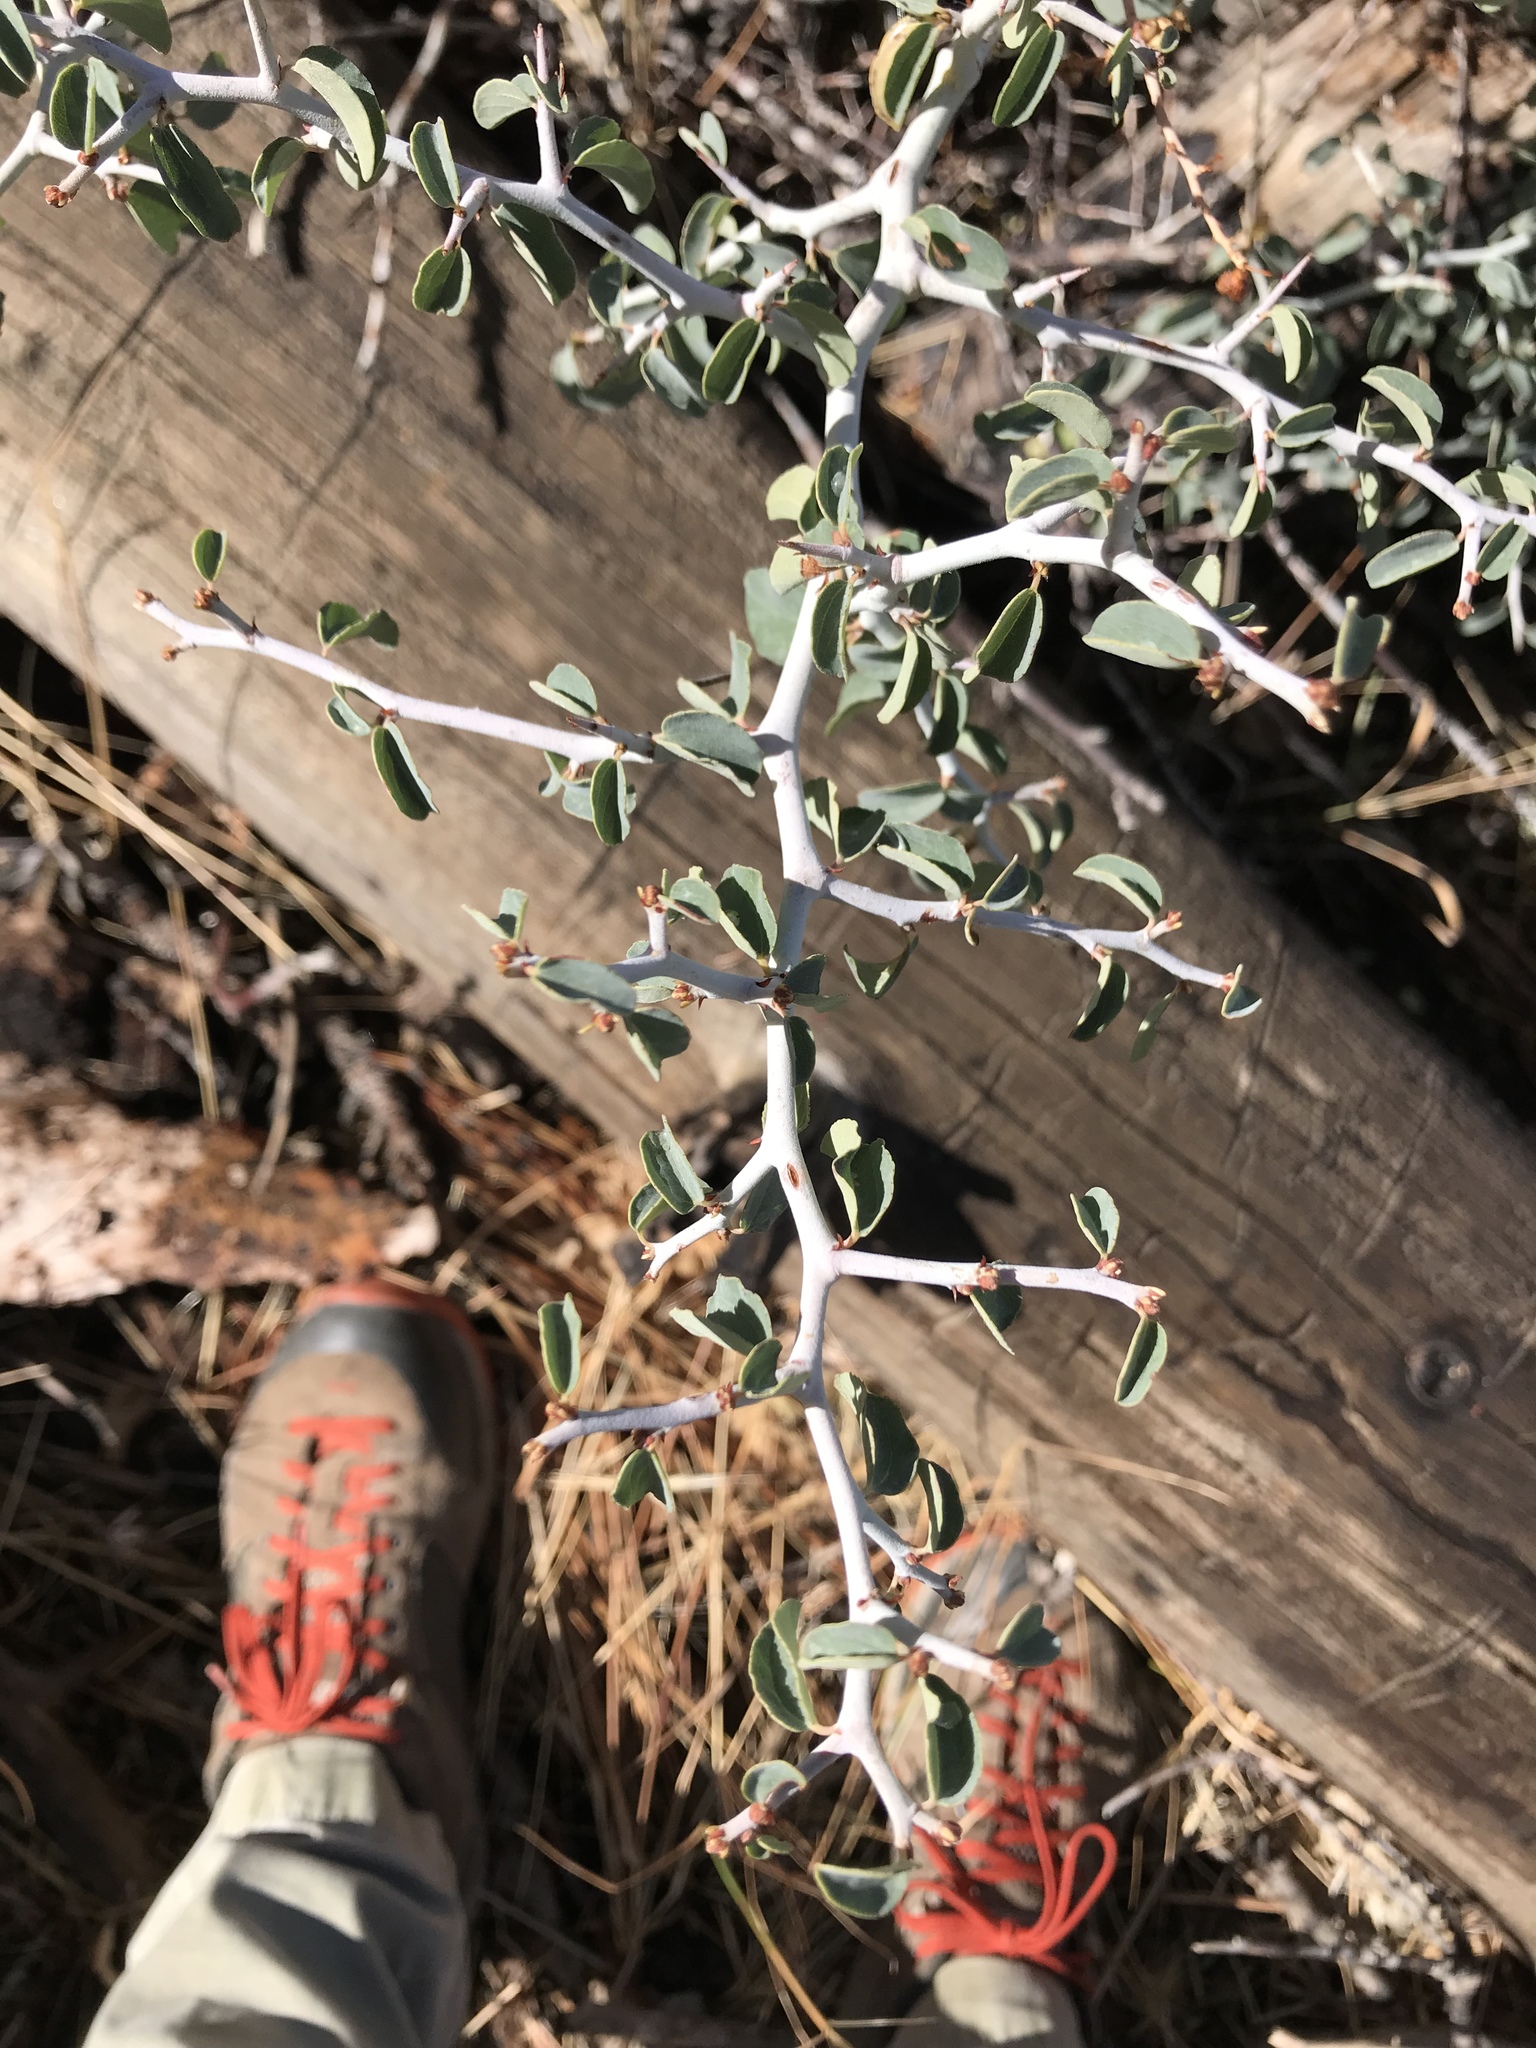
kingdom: Plantae
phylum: Tracheophyta
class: Magnoliopsida
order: Rosales
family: Rhamnaceae
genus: Ceanothus
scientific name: Ceanothus cordulatus
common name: Mountain whitethorn
